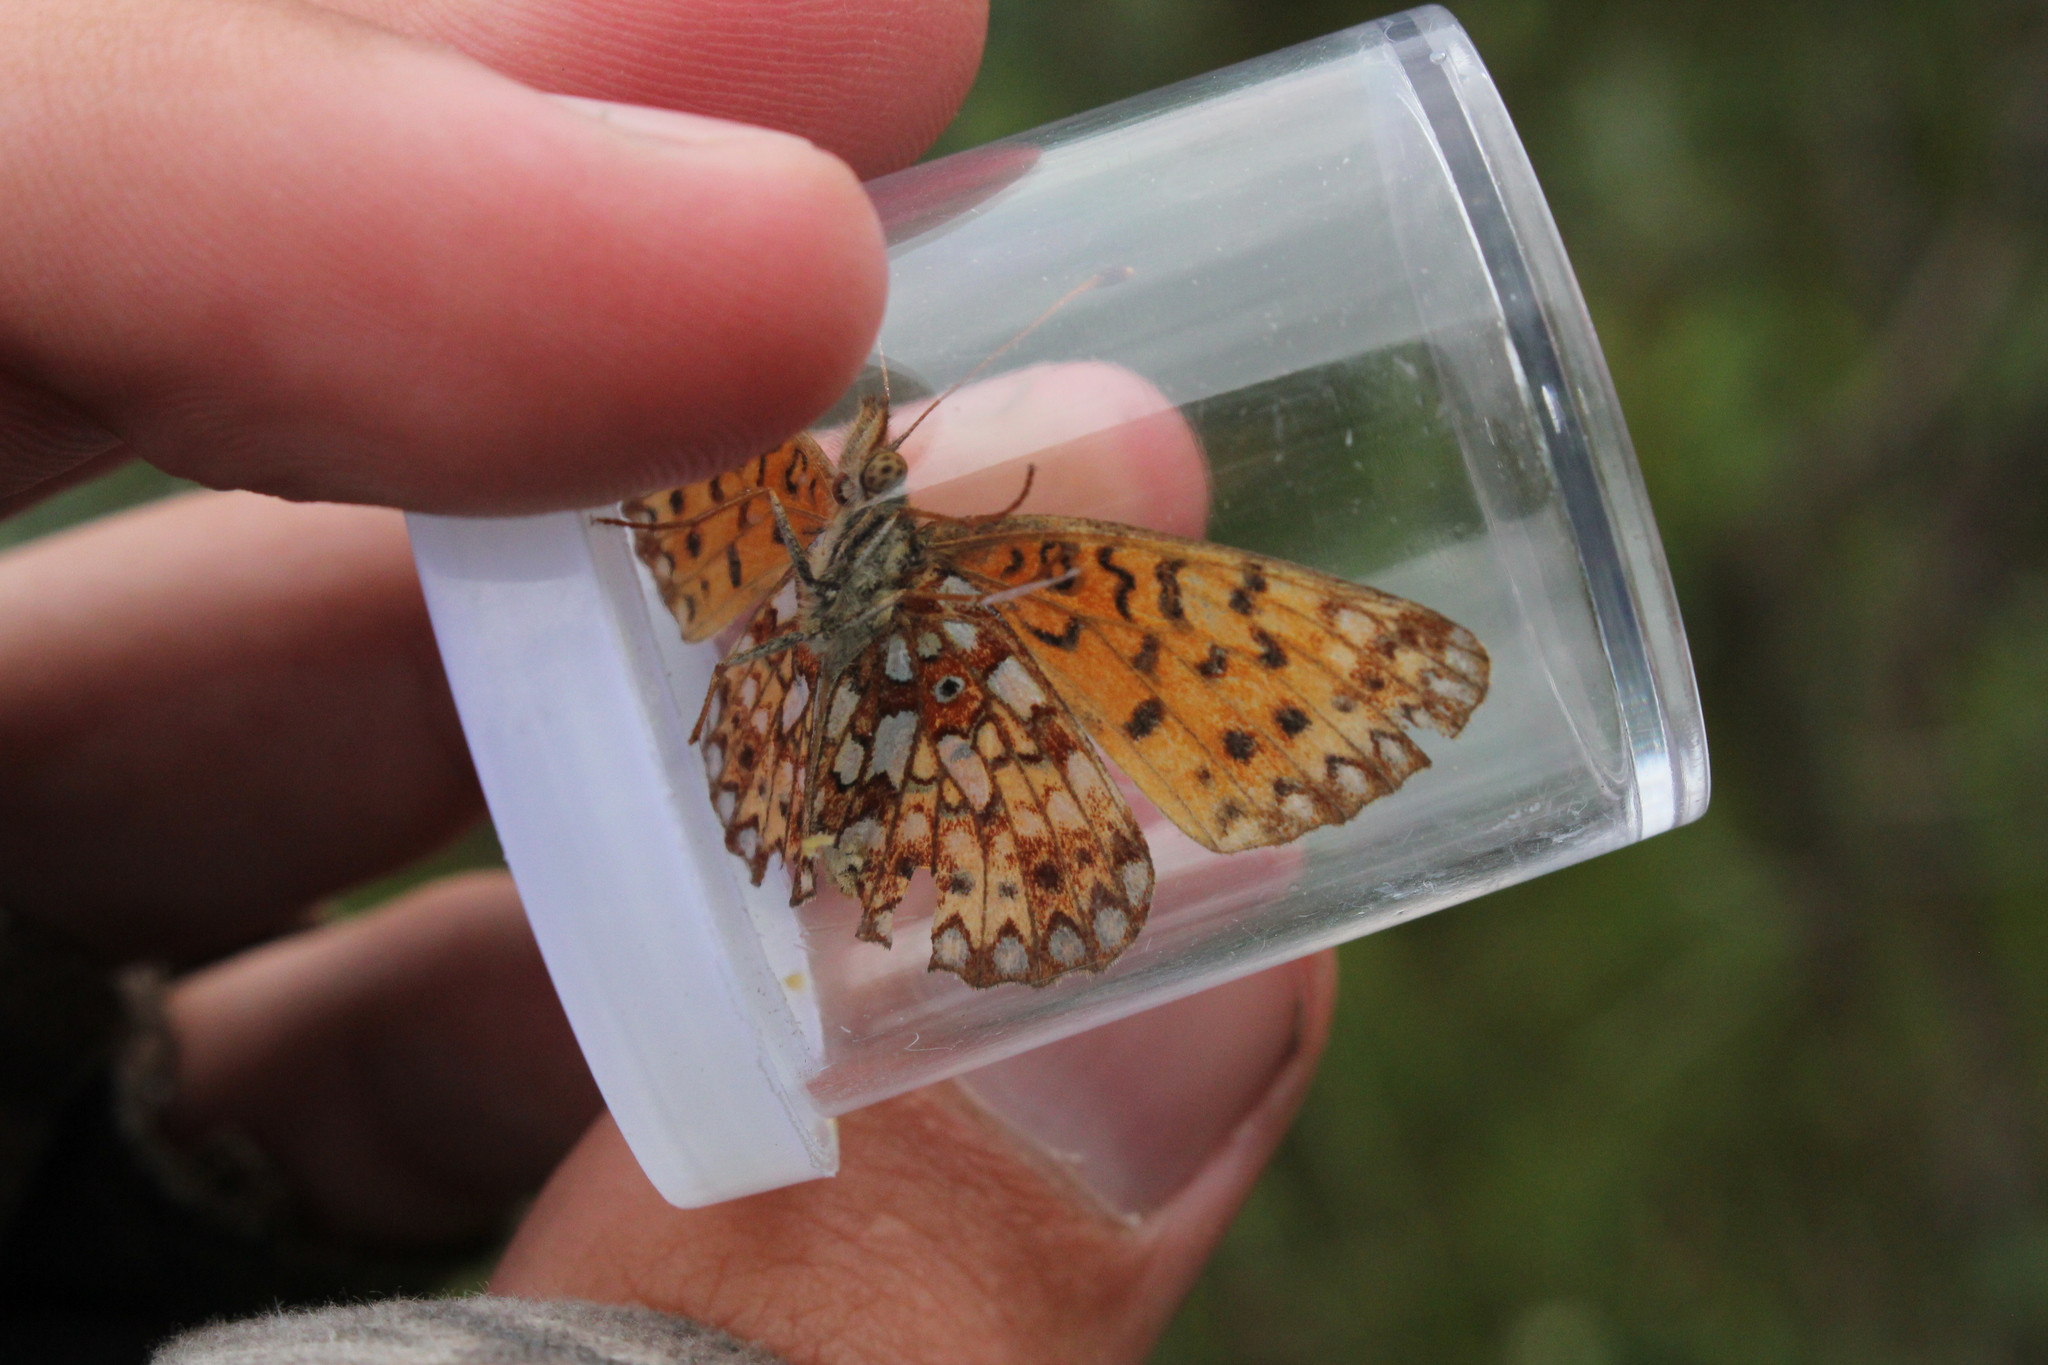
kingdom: Animalia
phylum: Arthropoda
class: Insecta
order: Lepidoptera
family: Nymphalidae
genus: Boloria
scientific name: Boloria
